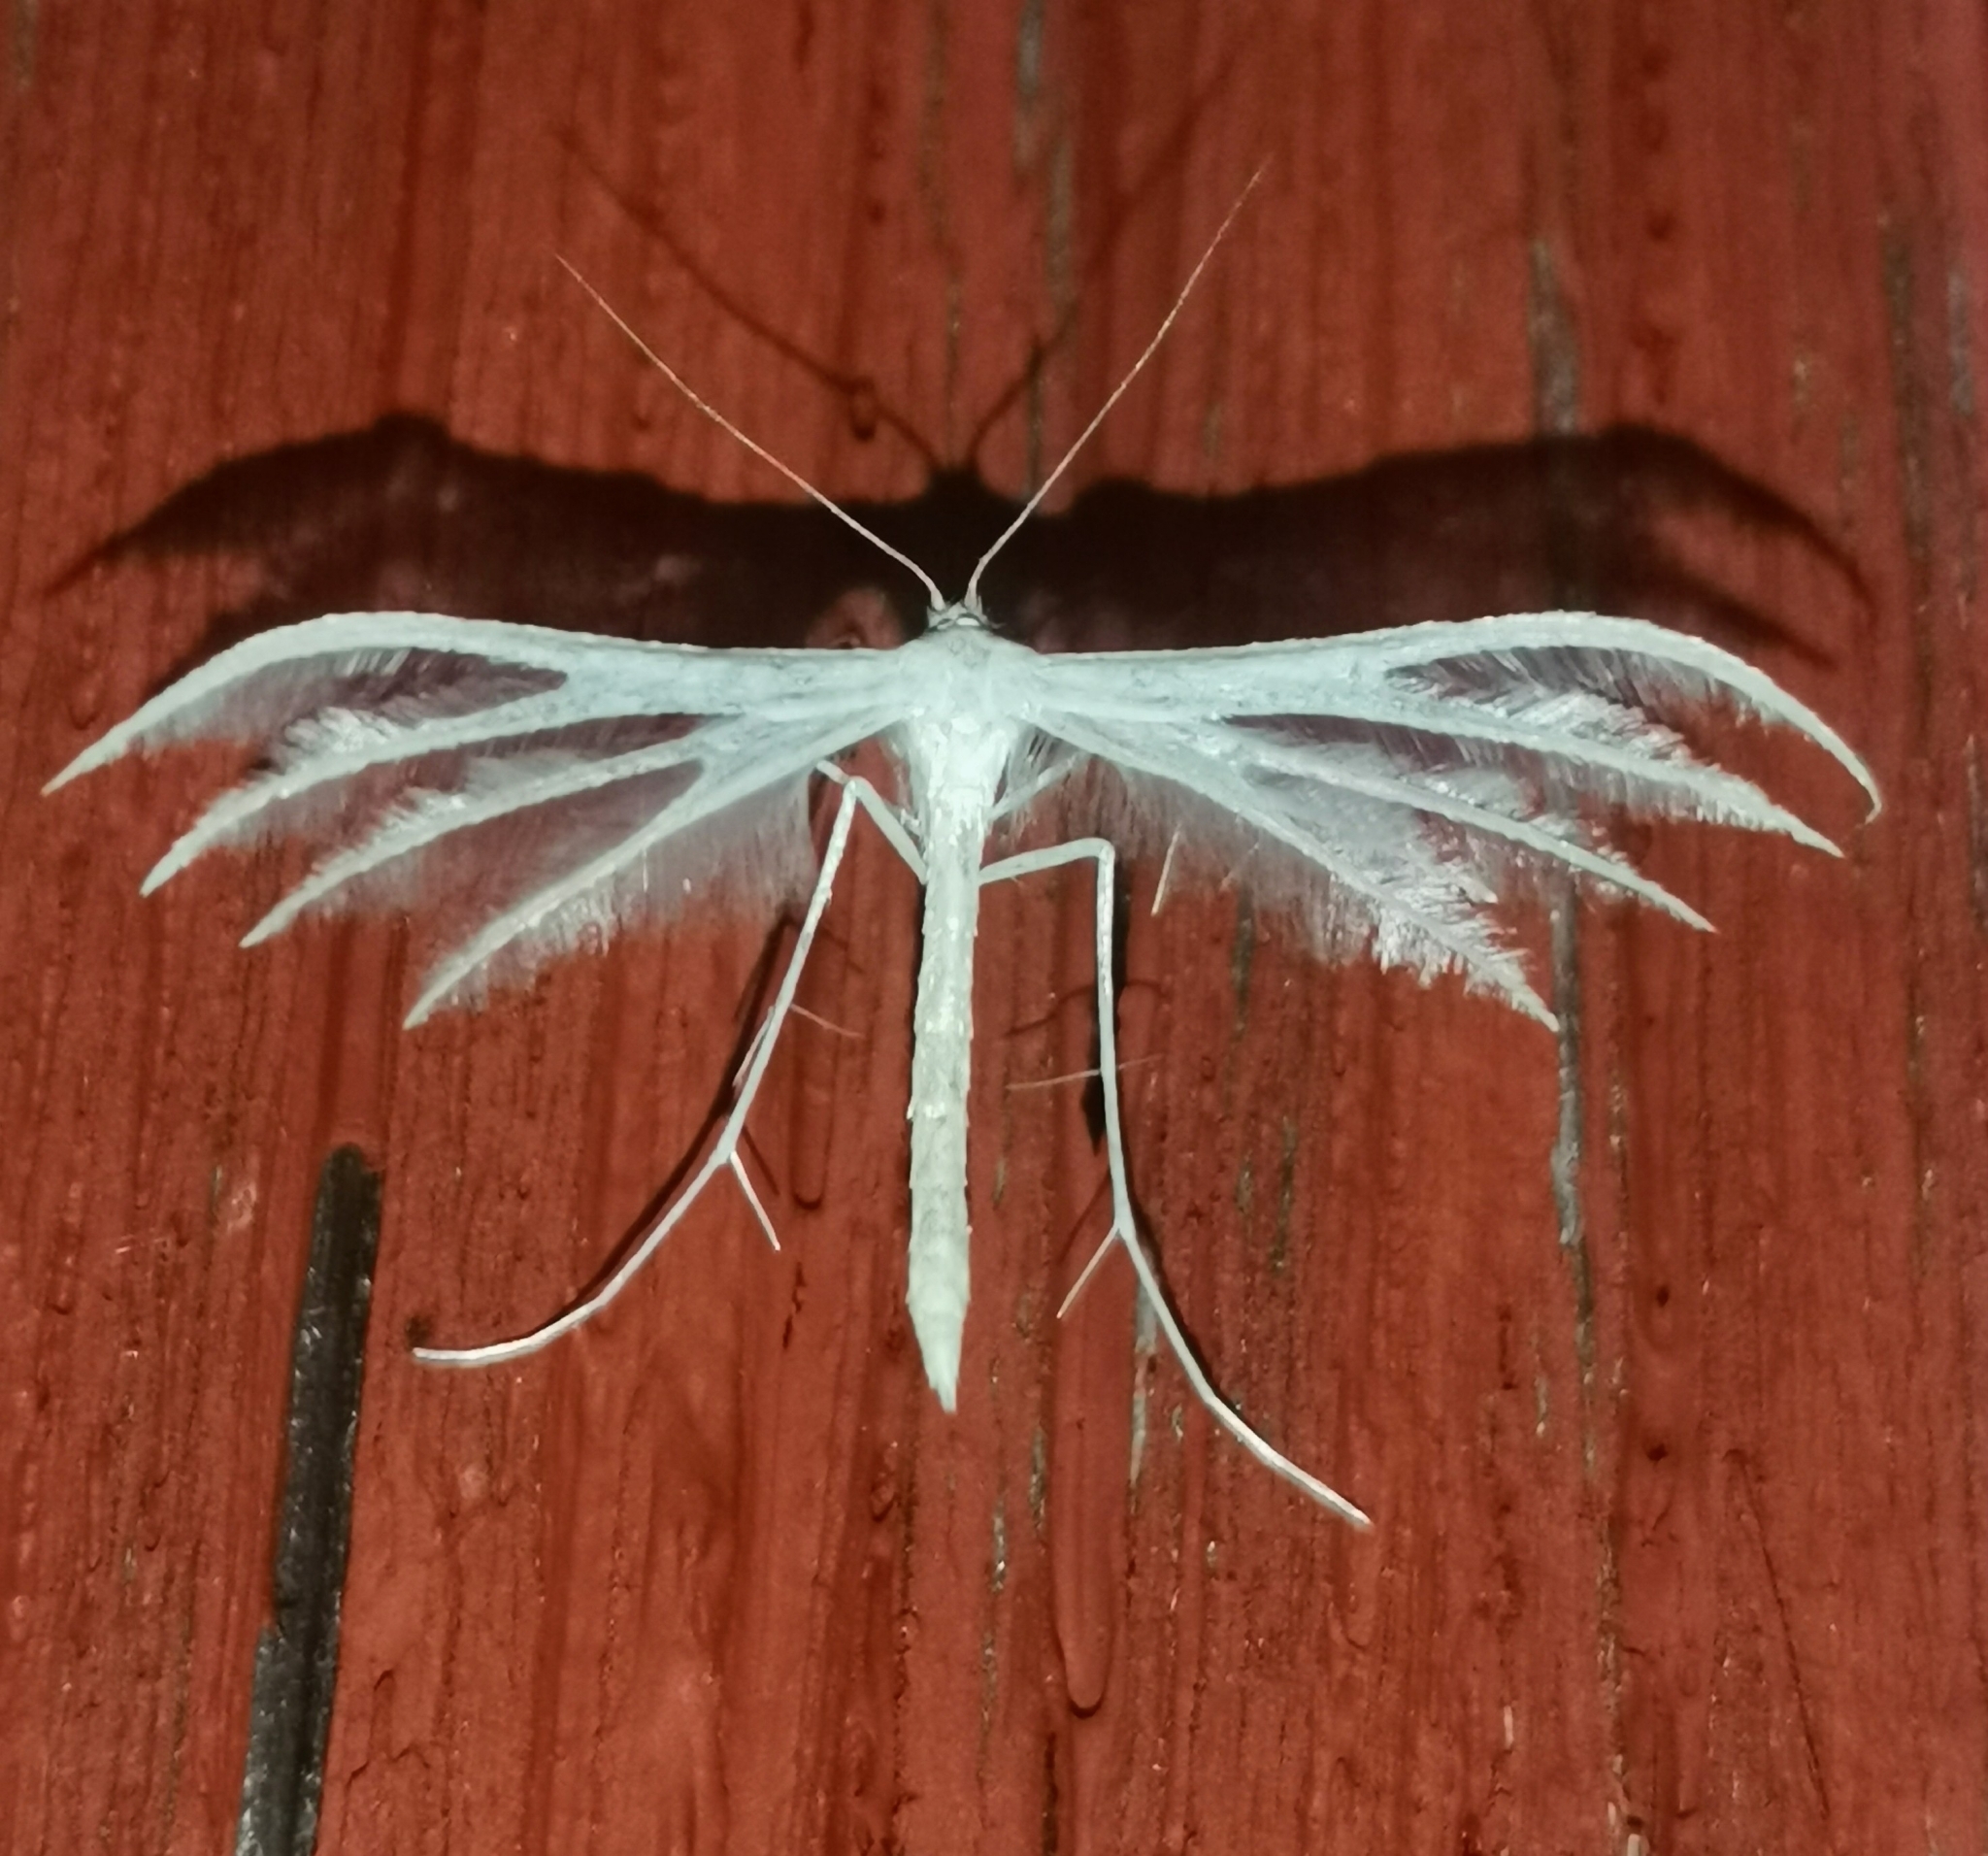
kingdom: Animalia
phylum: Arthropoda
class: Insecta
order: Lepidoptera
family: Pterophoridae
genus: Pterophorus
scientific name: Pterophorus pentadactyla
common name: White plume moth
